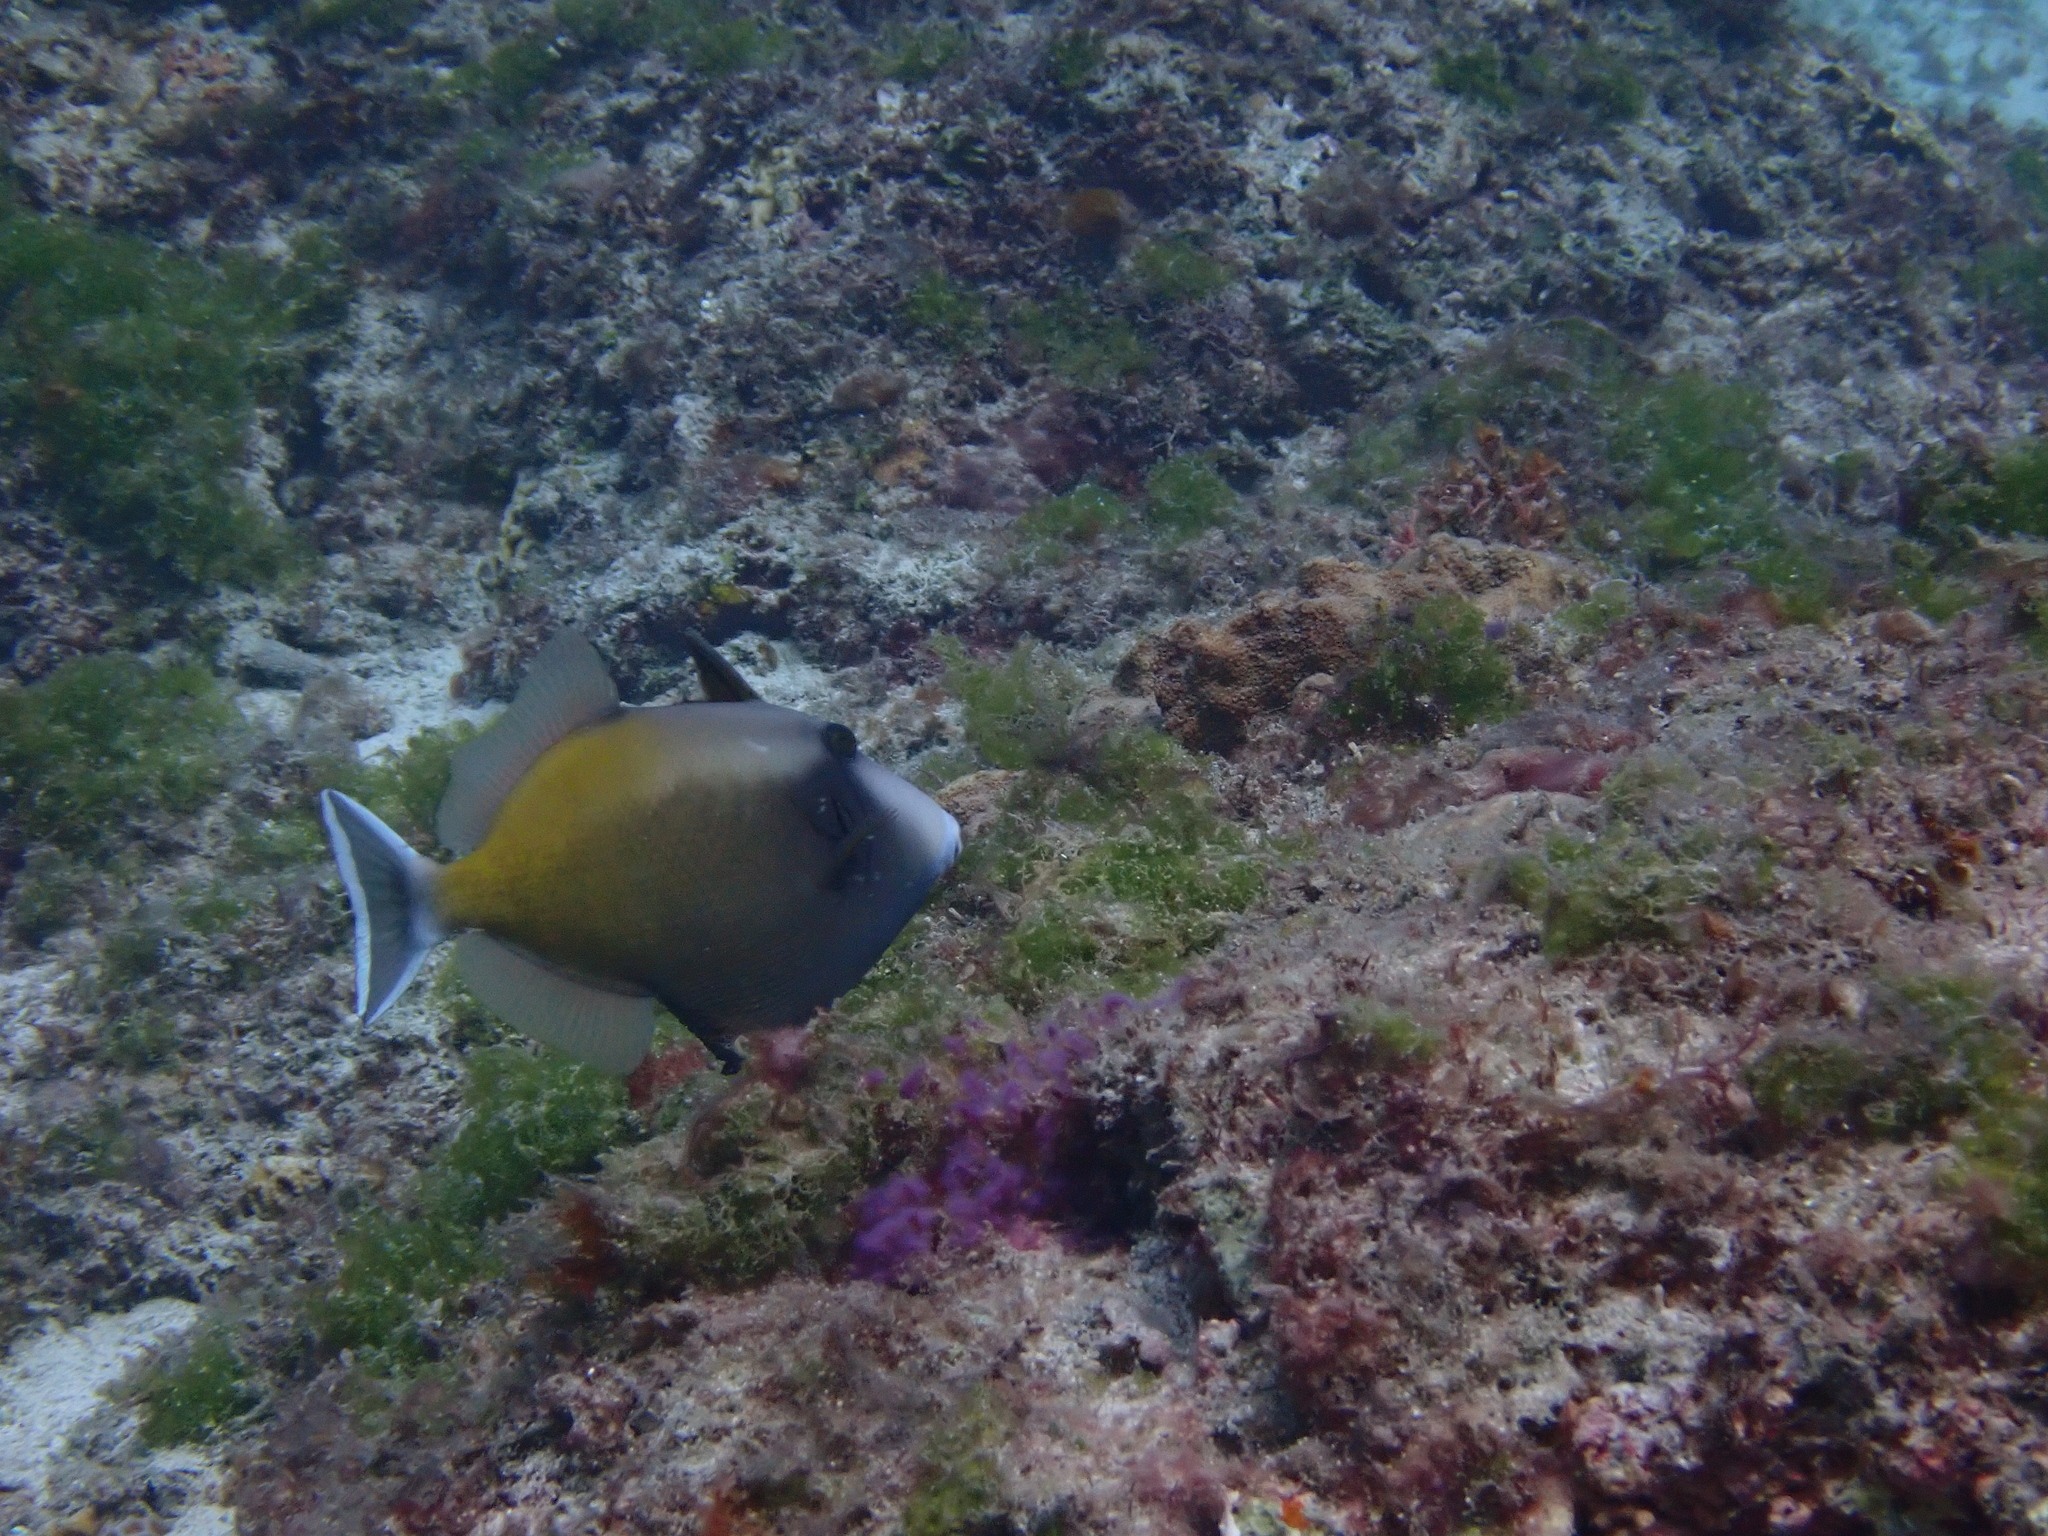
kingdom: Animalia
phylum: Chordata
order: Tetraodontiformes
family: Balistidae
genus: Sufflamen
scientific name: Sufflamen chrysopterum
